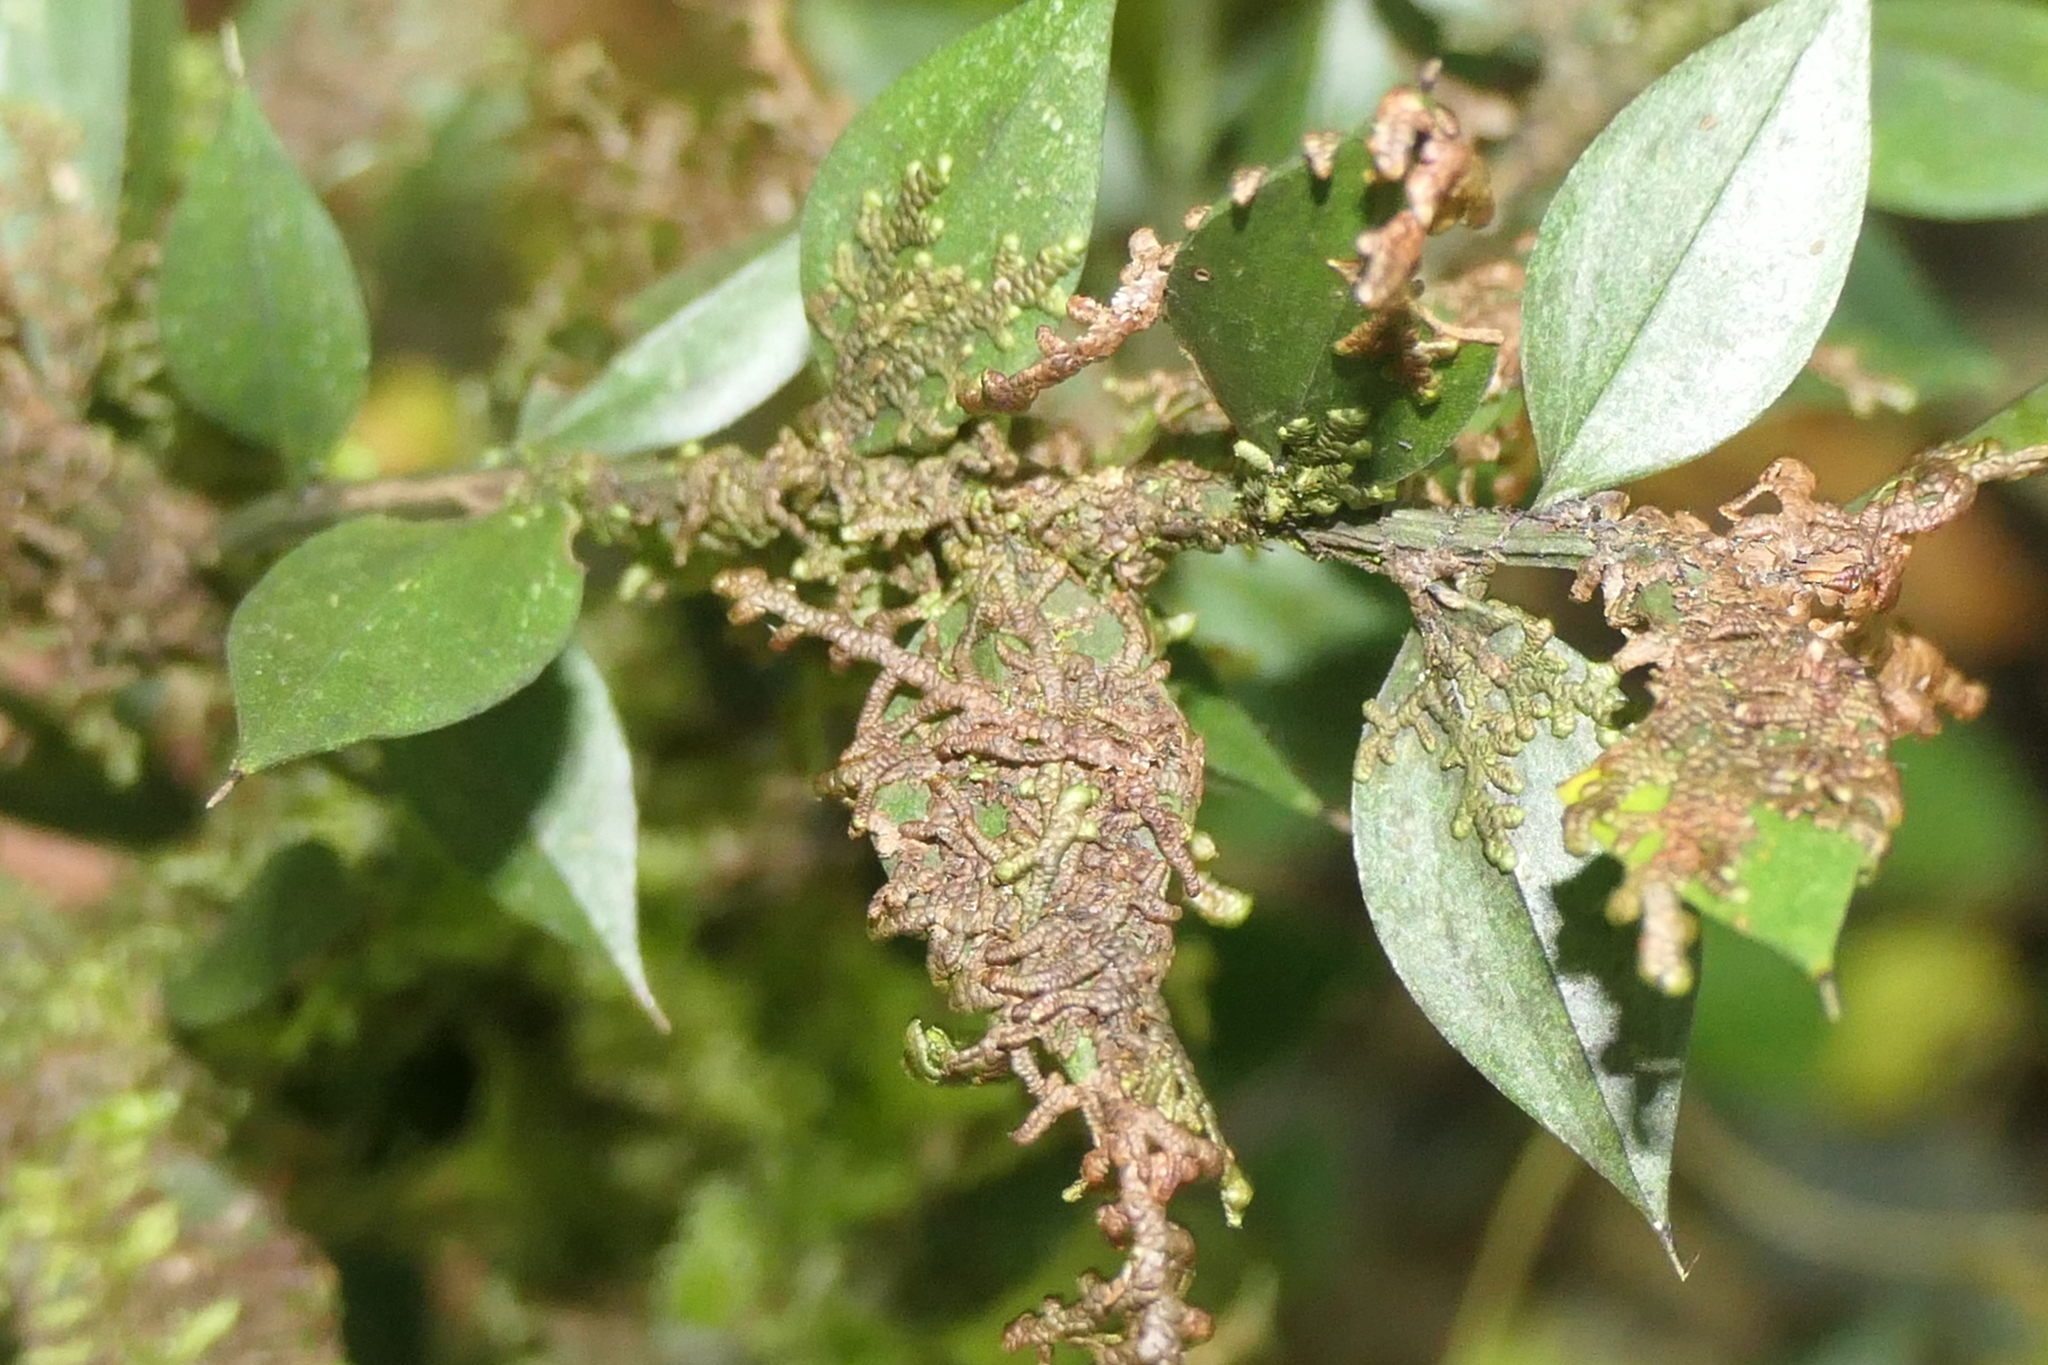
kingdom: Plantae
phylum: Tracheophyta
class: Liliopsida
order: Asparagales
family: Asparagaceae
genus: Ruscus
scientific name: Ruscus aculeatus
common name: Butcher's-broom
